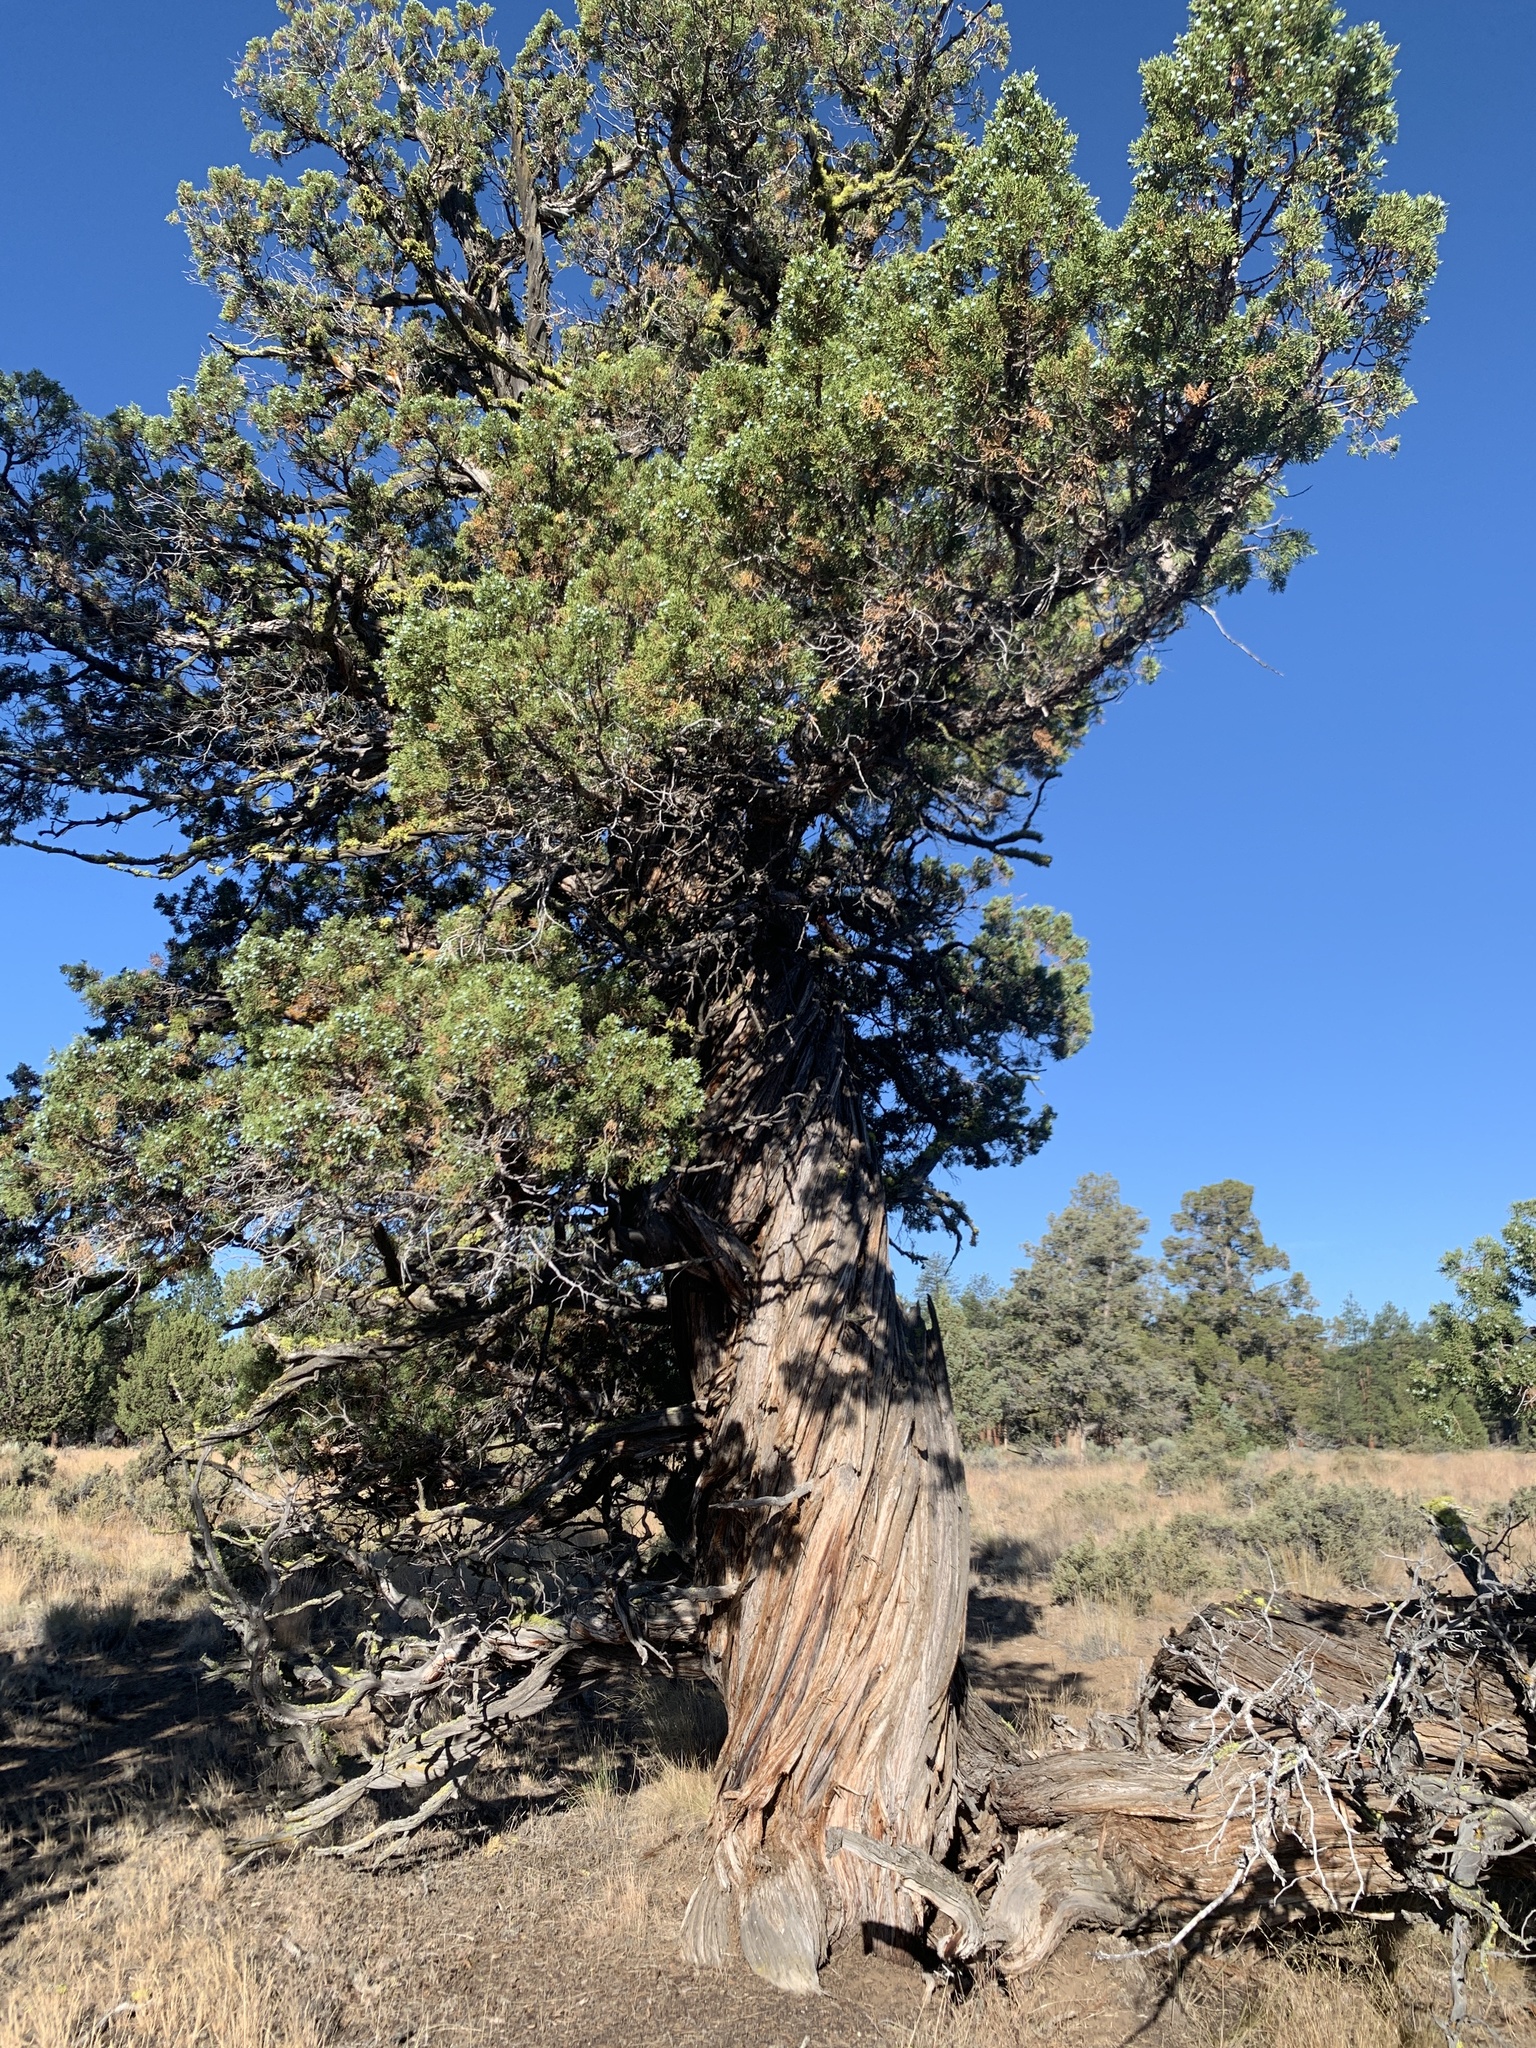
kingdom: Plantae
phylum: Tracheophyta
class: Pinopsida
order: Pinales
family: Cupressaceae
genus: Juniperus
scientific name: Juniperus occidentalis
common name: Western juniper
